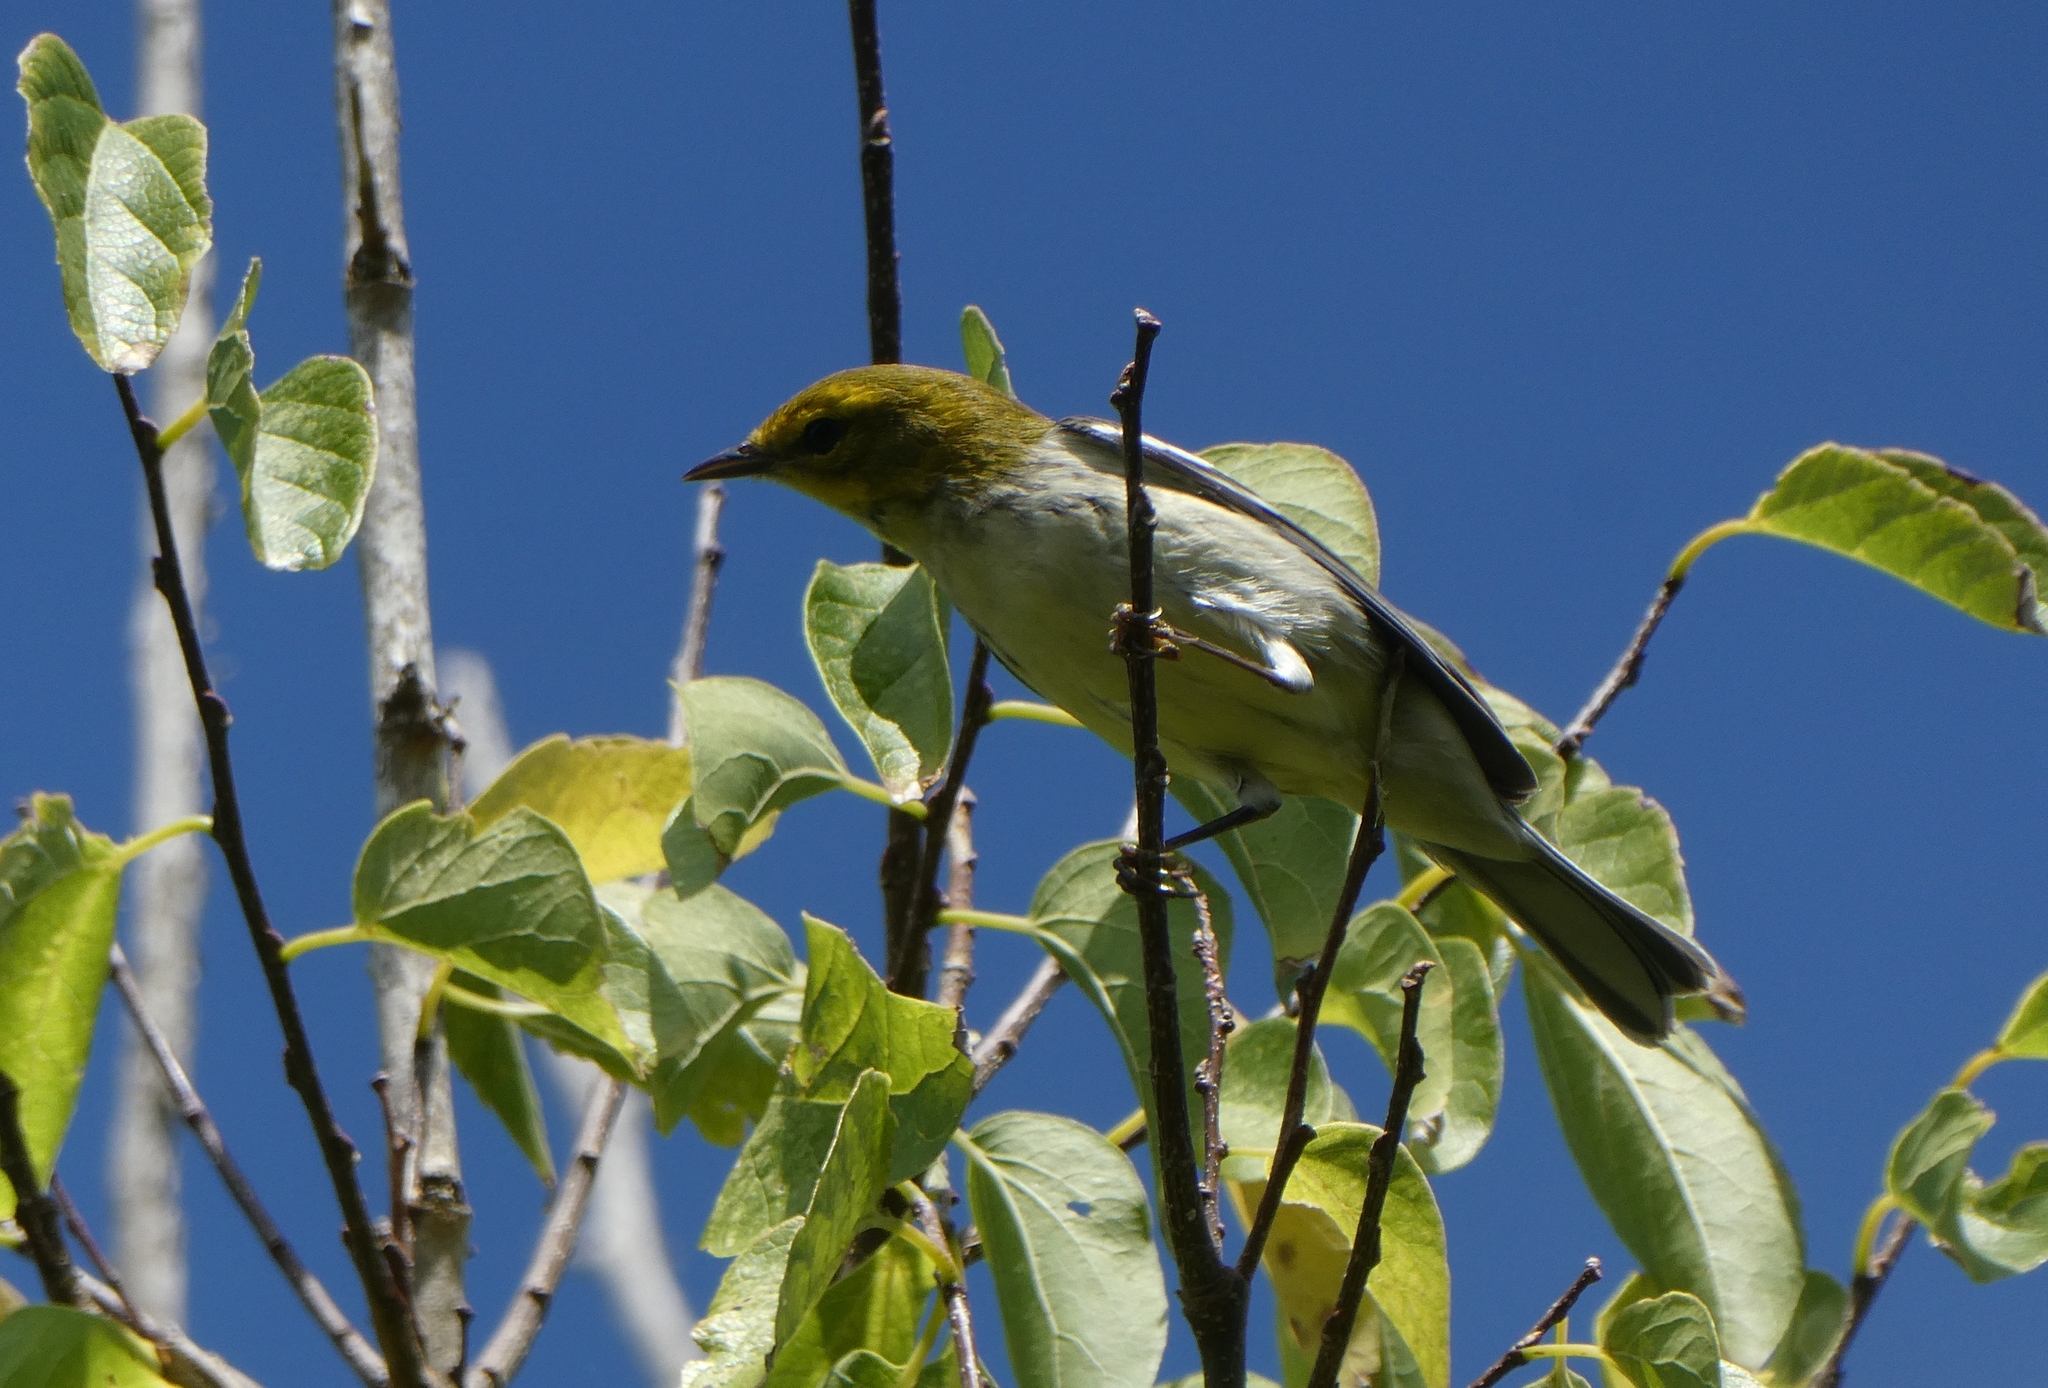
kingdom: Animalia
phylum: Chordata
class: Aves
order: Passeriformes
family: Parulidae
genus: Setophaga
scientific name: Setophaga virens
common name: Black-throated green warbler
